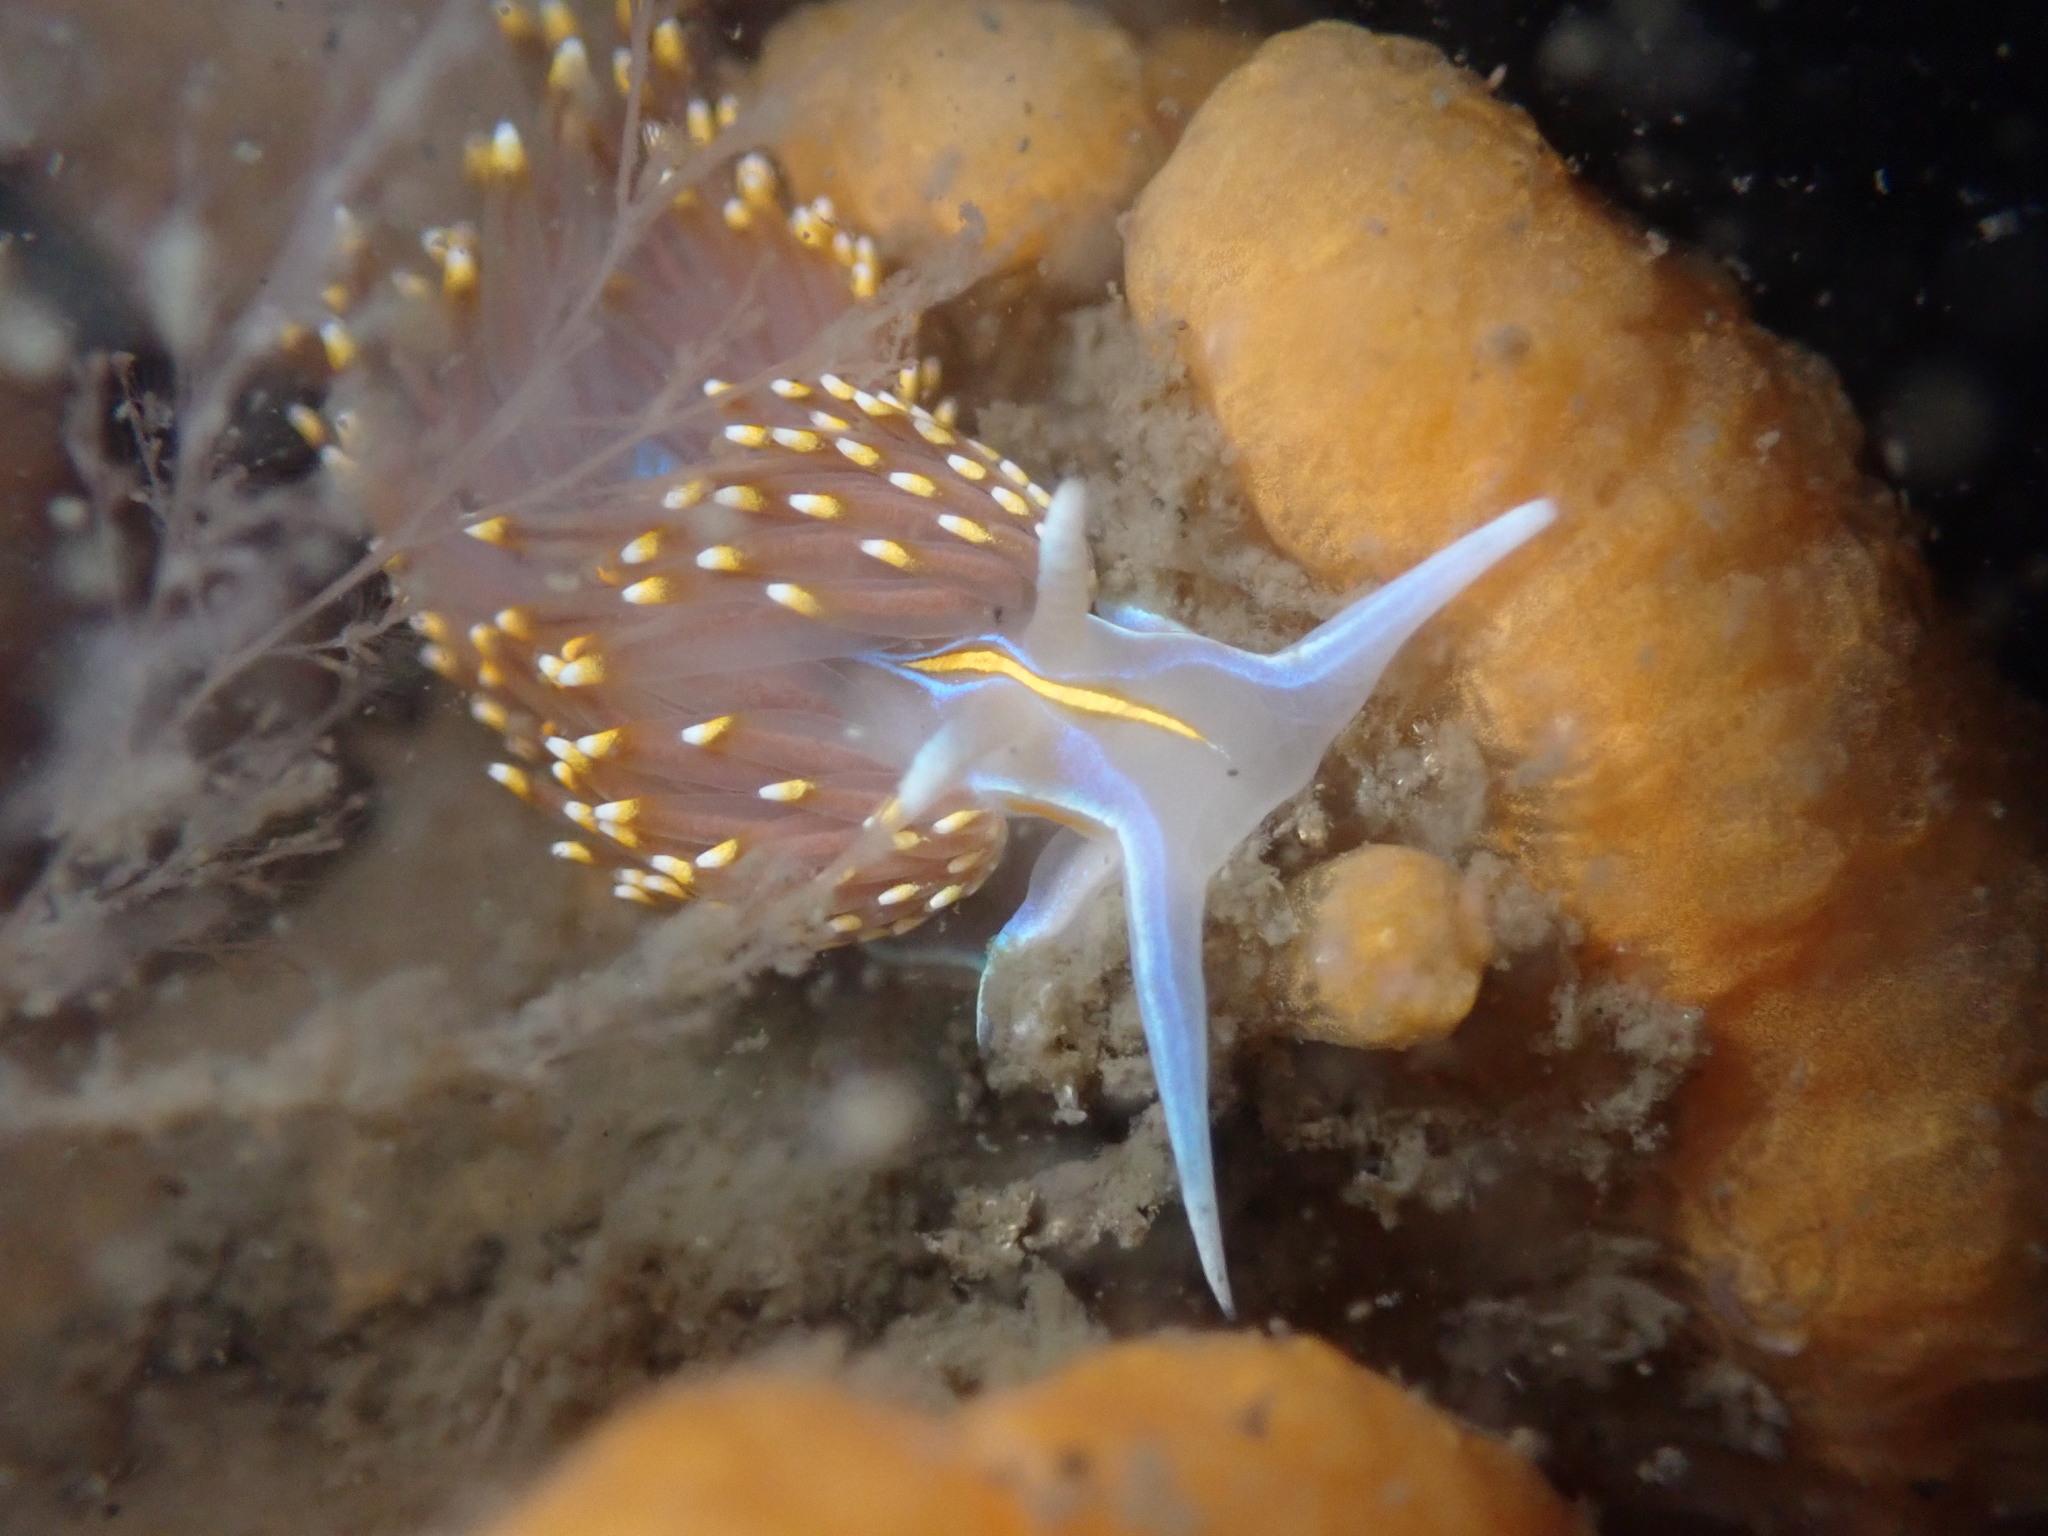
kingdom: Animalia
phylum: Mollusca
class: Gastropoda
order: Nudibranchia
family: Myrrhinidae
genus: Hermissenda
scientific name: Hermissenda opalescens
